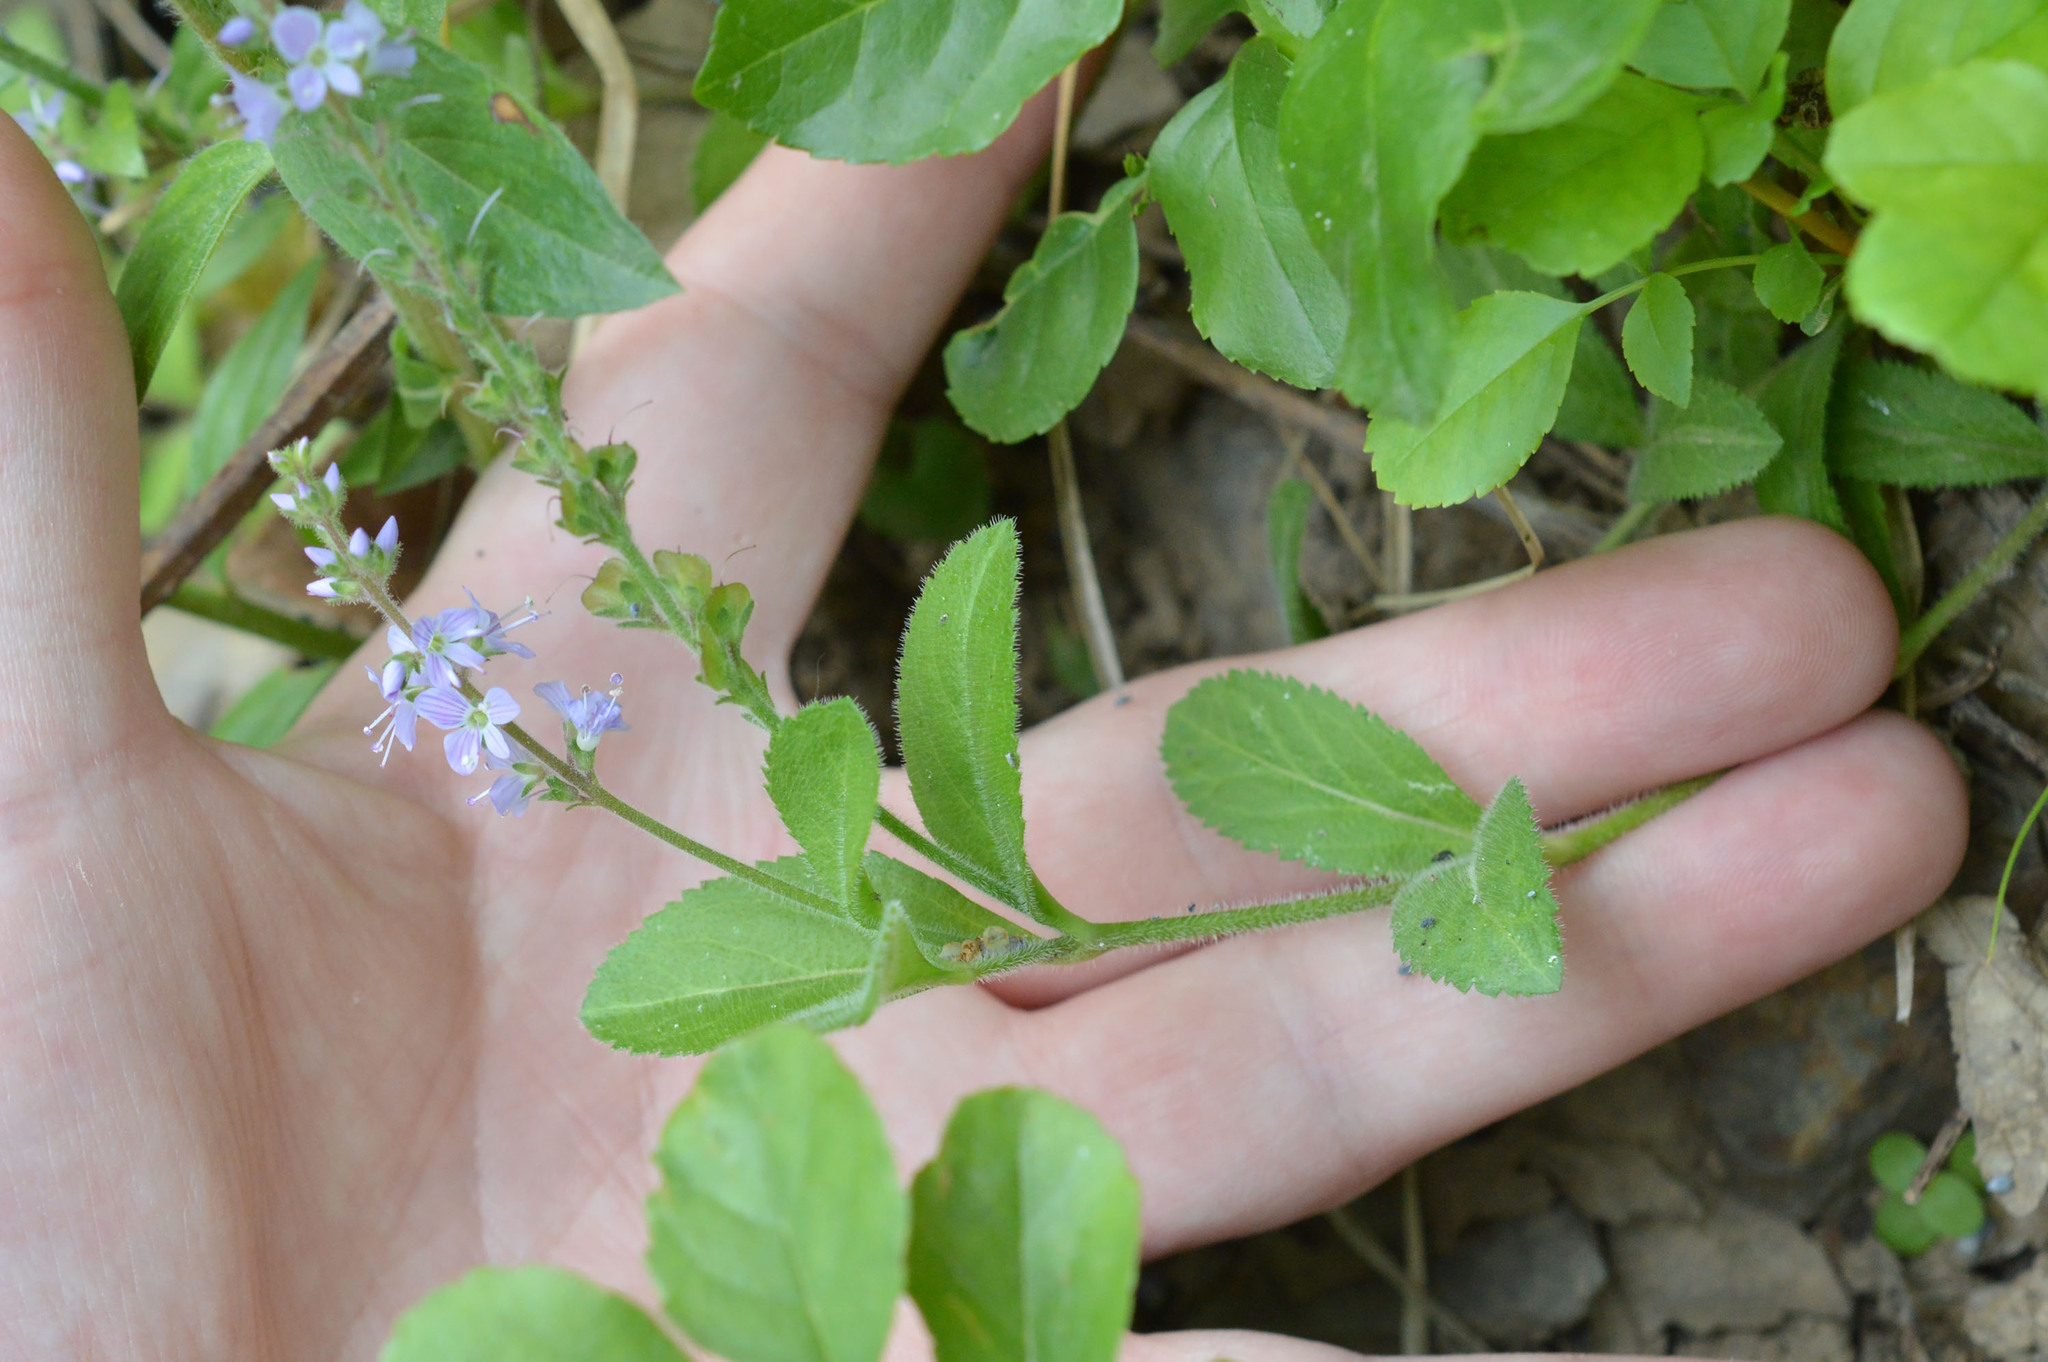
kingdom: Plantae
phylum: Tracheophyta
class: Magnoliopsida
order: Lamiales
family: Plantaginaceae
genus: Veronica
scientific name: Veronica officinalis
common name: Common speedwell
